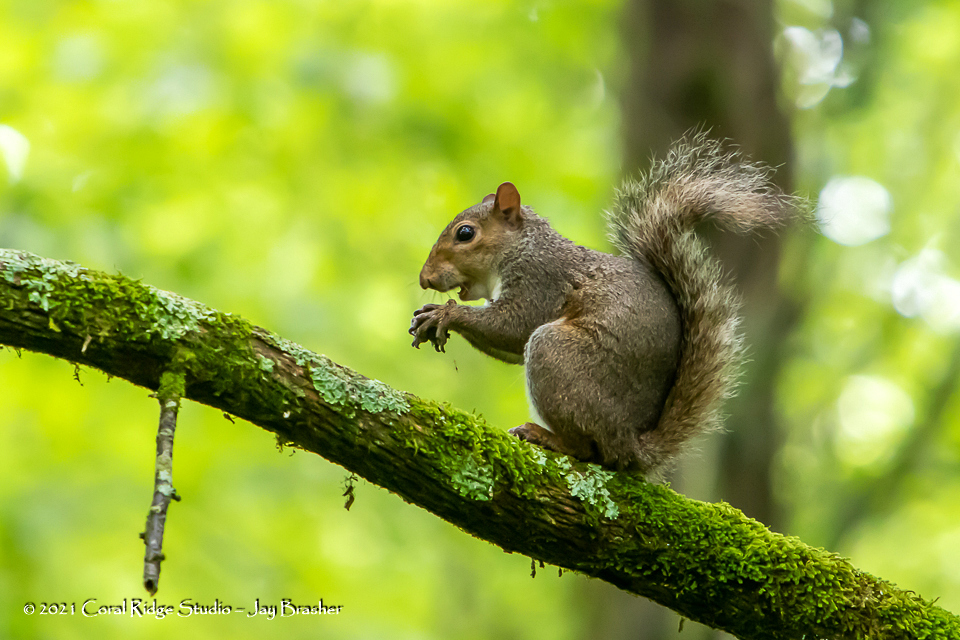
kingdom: Animalia
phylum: Chordata
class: Mammalia
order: Rodentia
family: Sciuridae
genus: Sciurus
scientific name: Sciurus carolinensis
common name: Eastern gray squirrel
